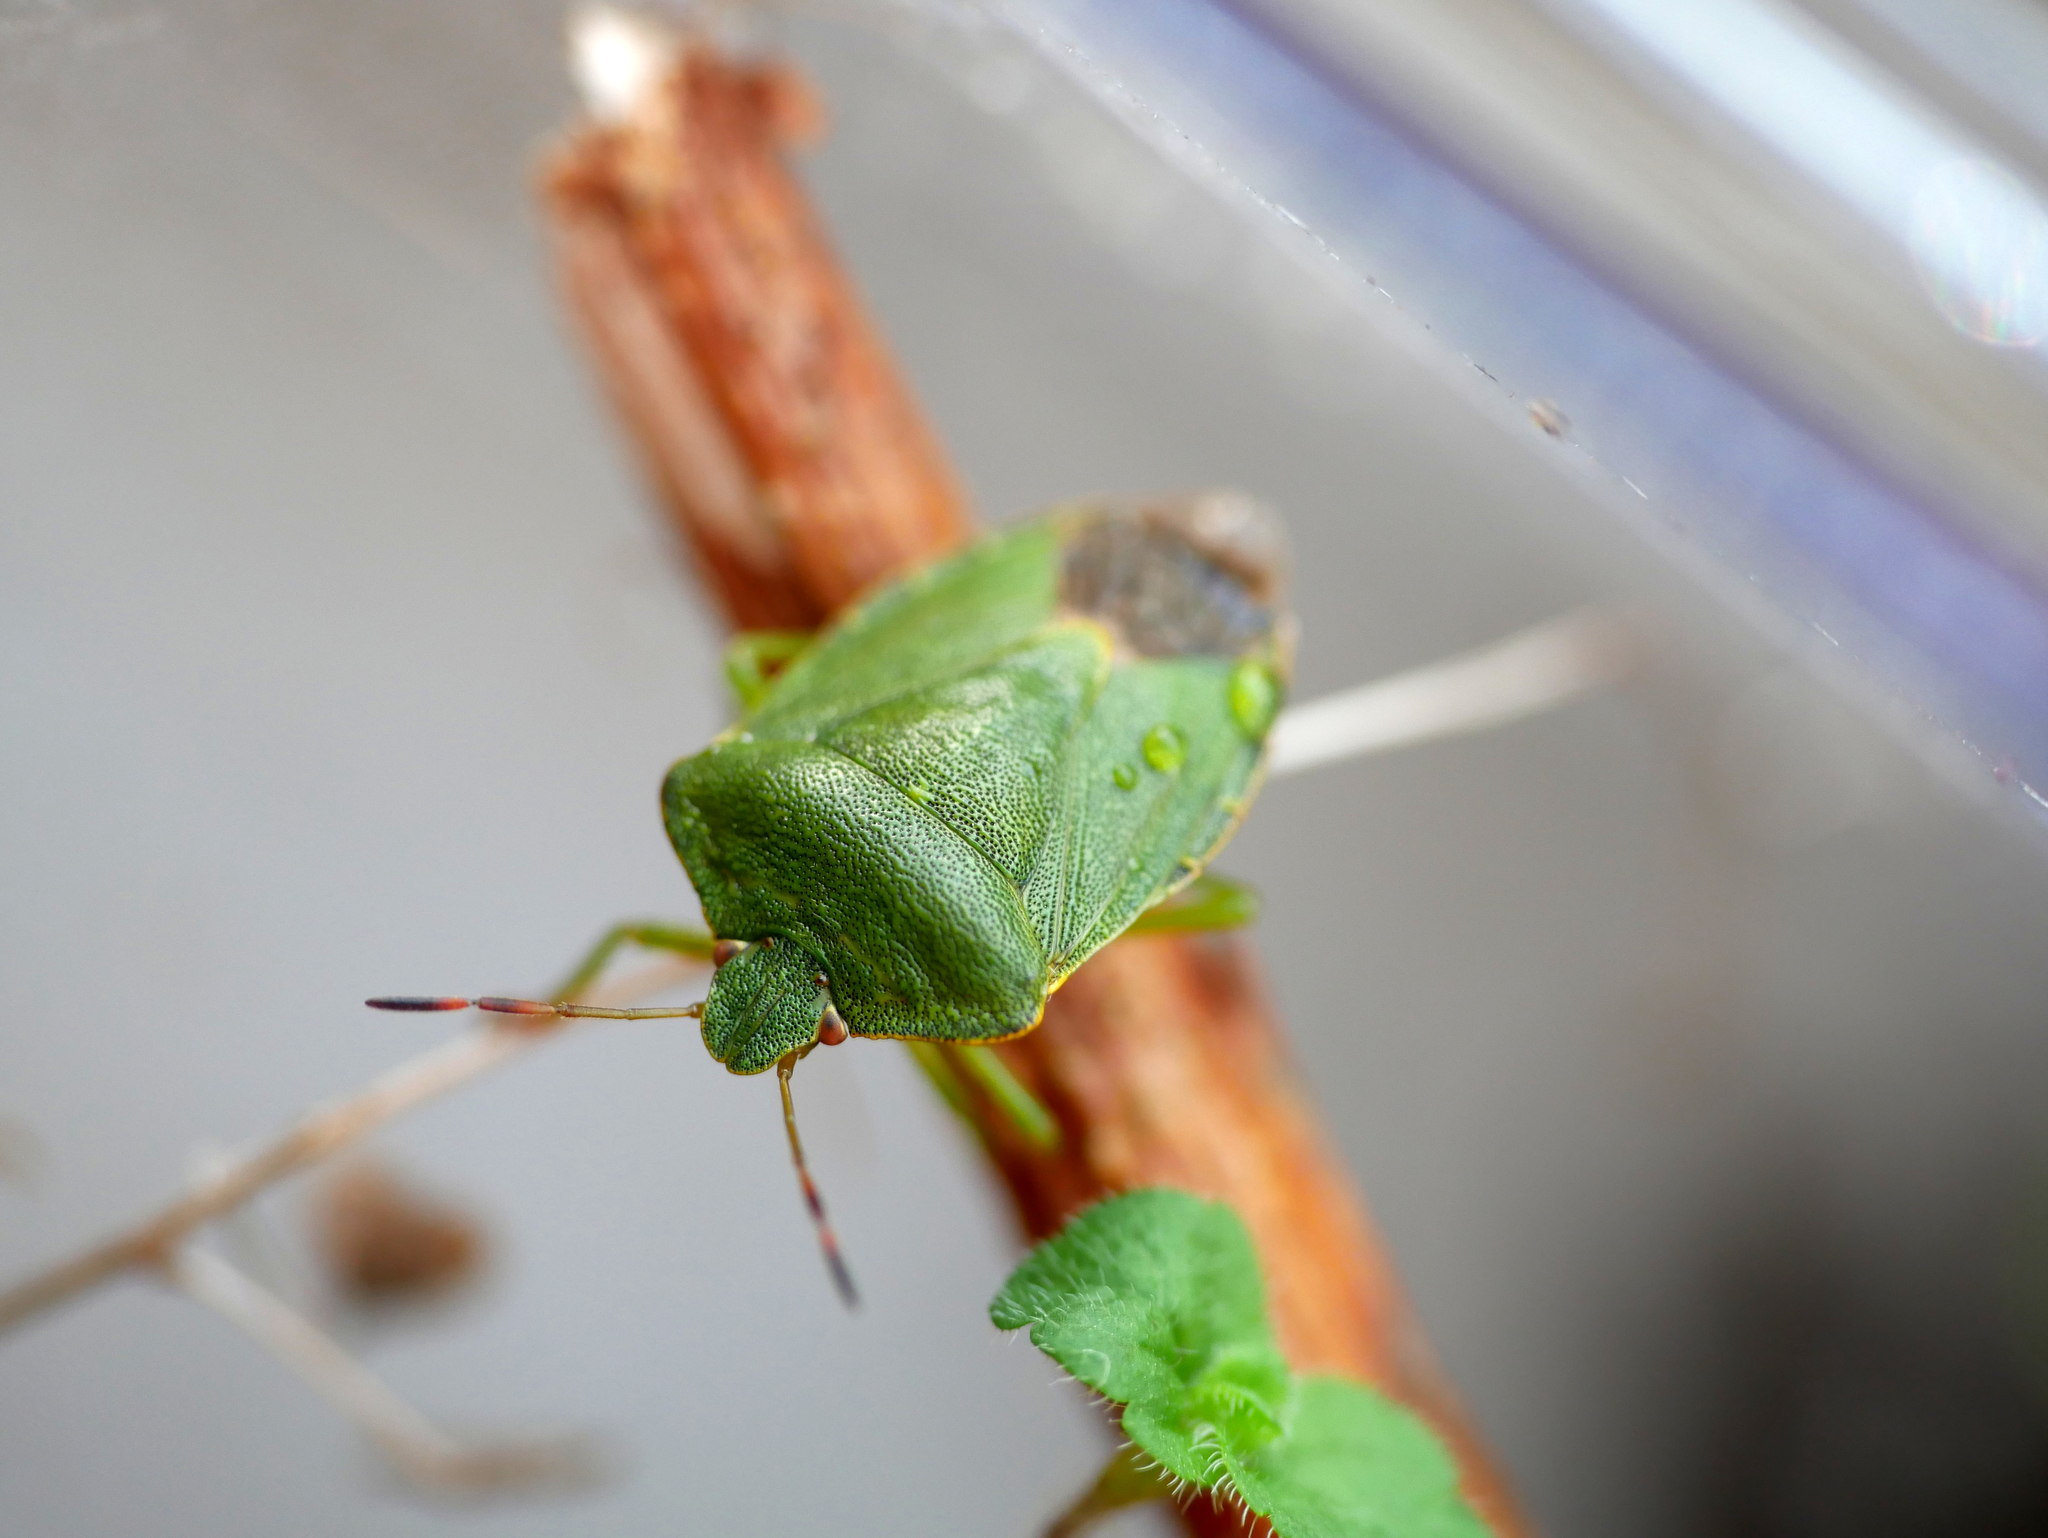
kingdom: Animalia
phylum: Arthropoda
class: Insecta
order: Hemiptera
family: Pentatomidae
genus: Palomena
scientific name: Palomena prasina
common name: Green shieldbug
